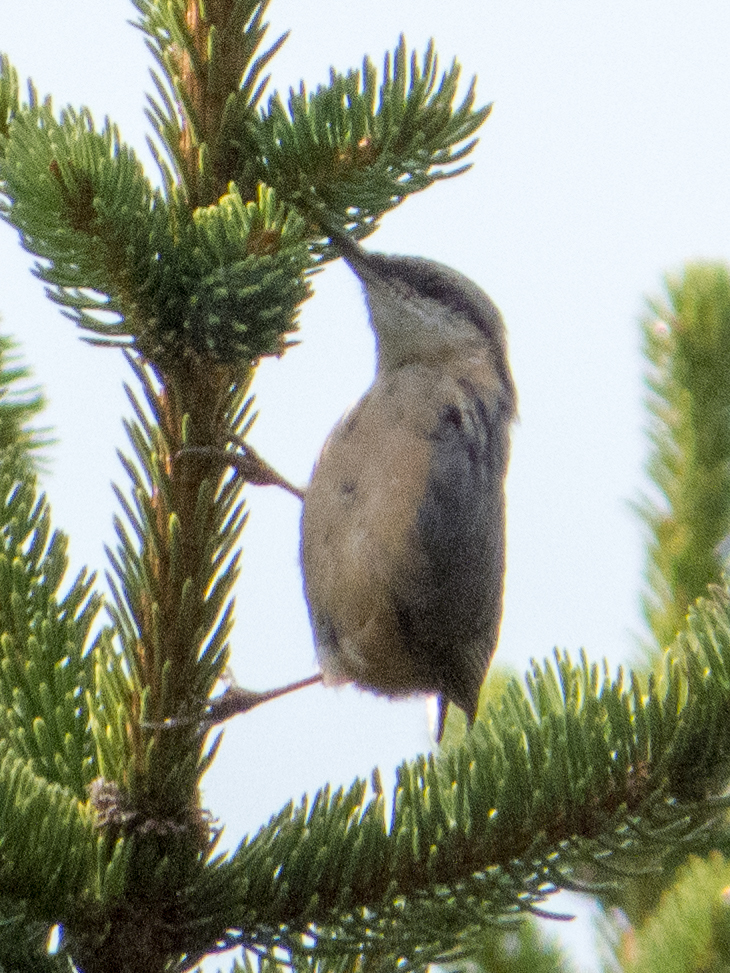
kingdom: Animalia
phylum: Chordata
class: Aves
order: Passeriformes
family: Sittidae
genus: Sitta
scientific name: Sitta europaea
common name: Eurasian nuthatch
